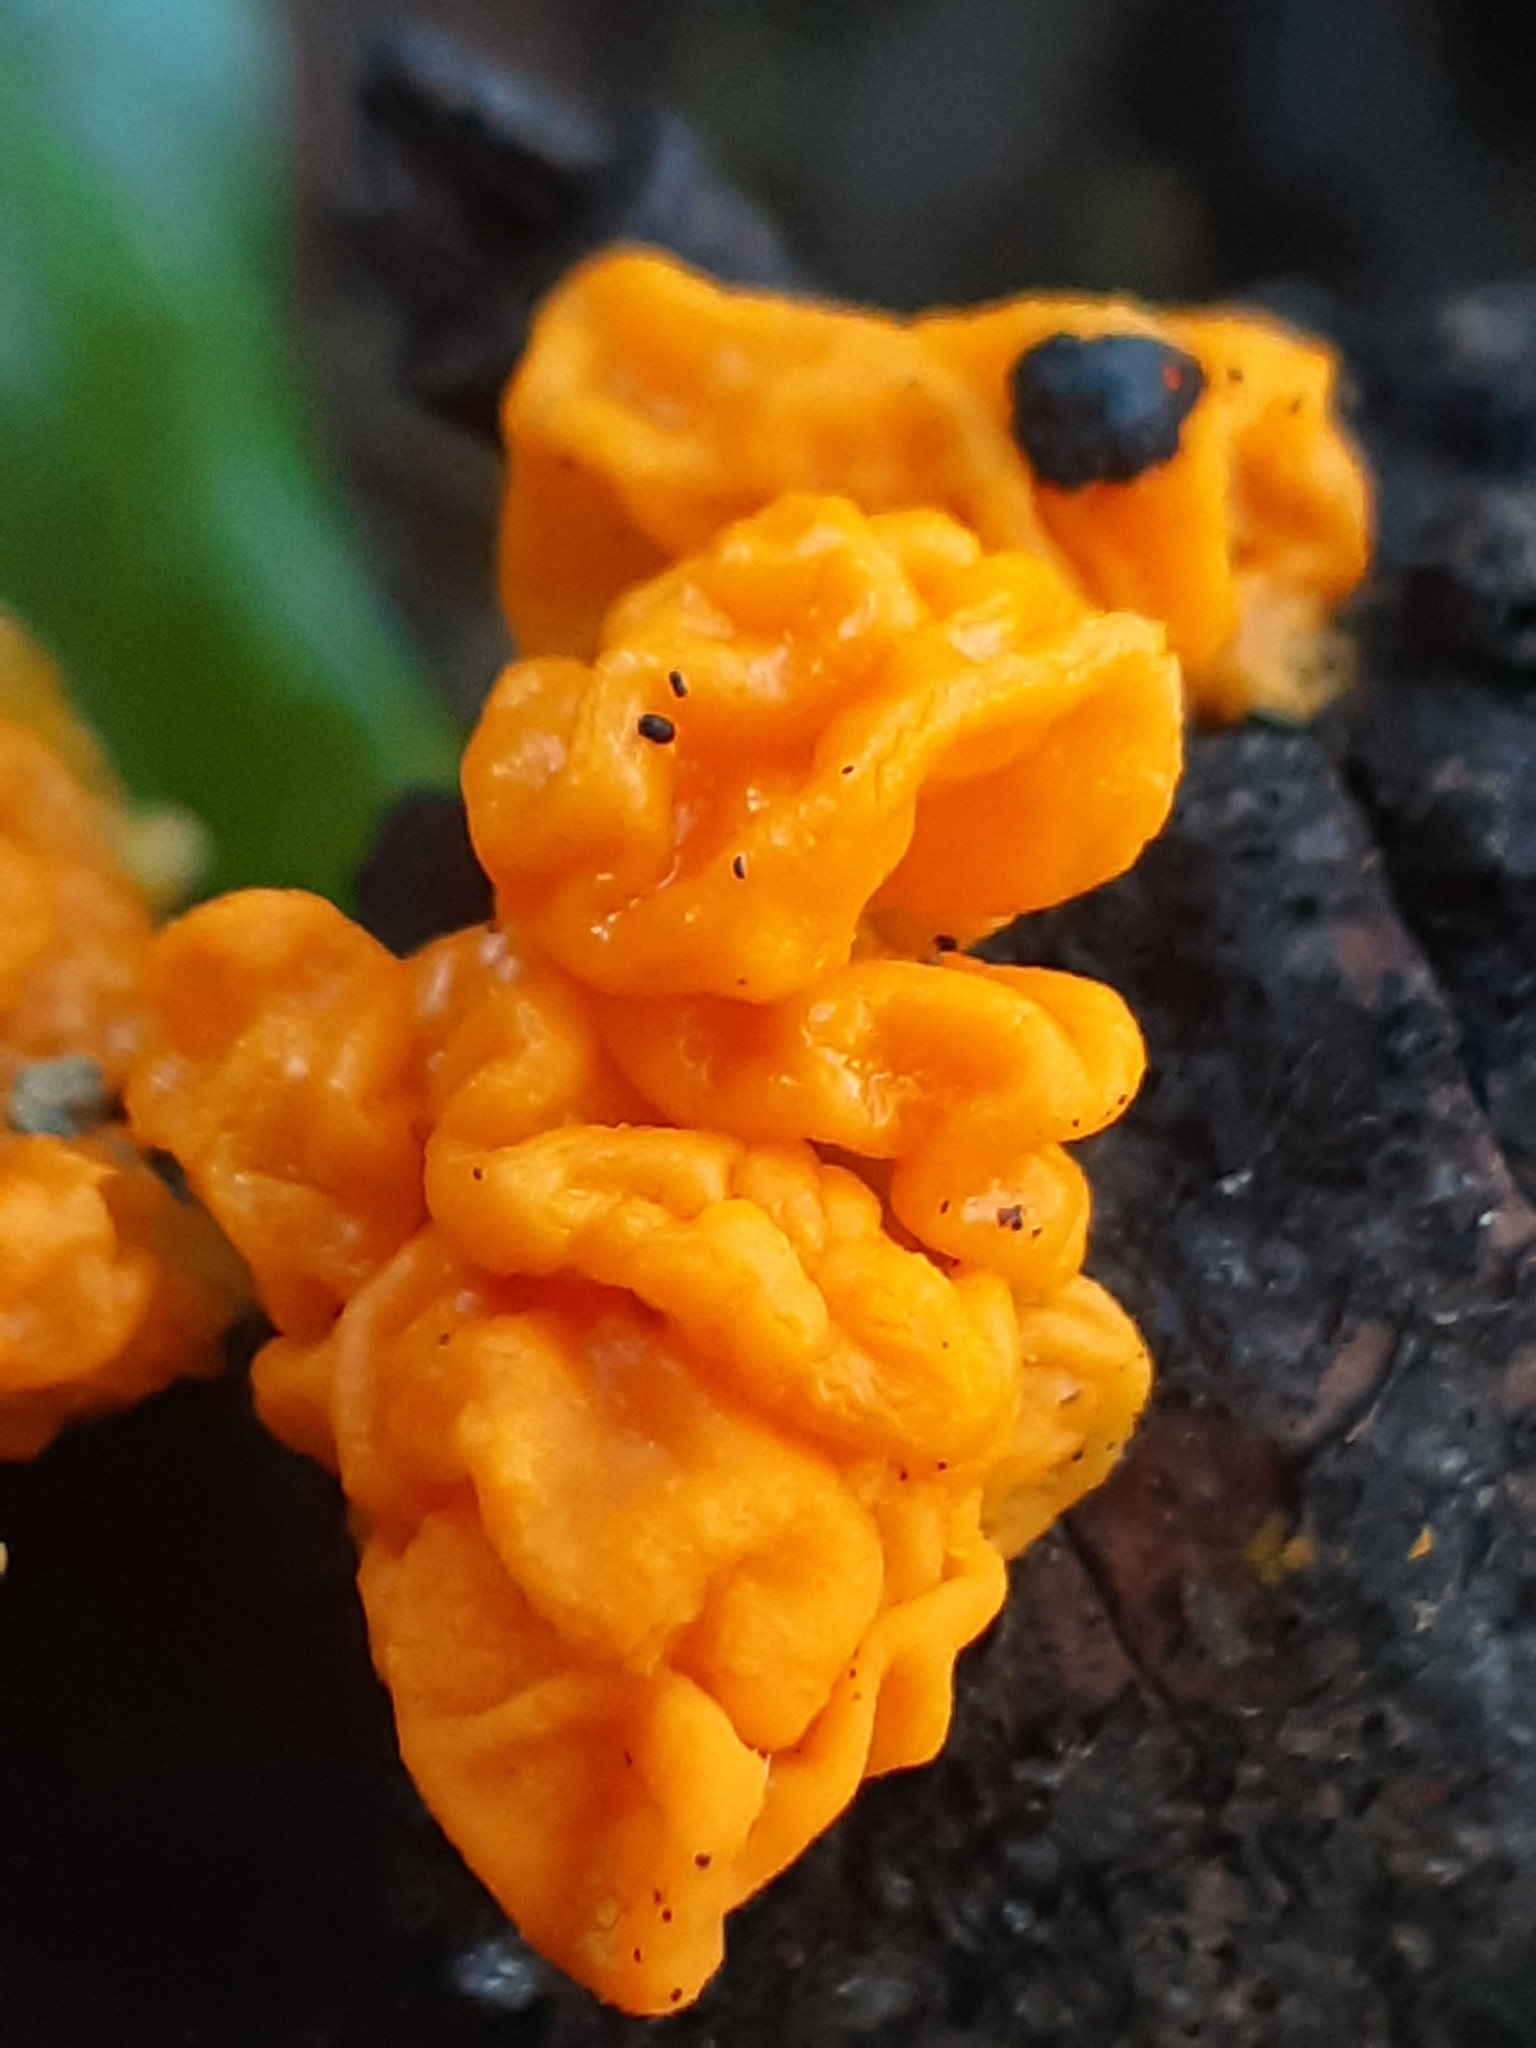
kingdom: Fungi
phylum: Basidiomycota
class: Tremellomycetes
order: Tremellales
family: Tremellaceae
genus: Tremella
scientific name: Tremella mesenterica
